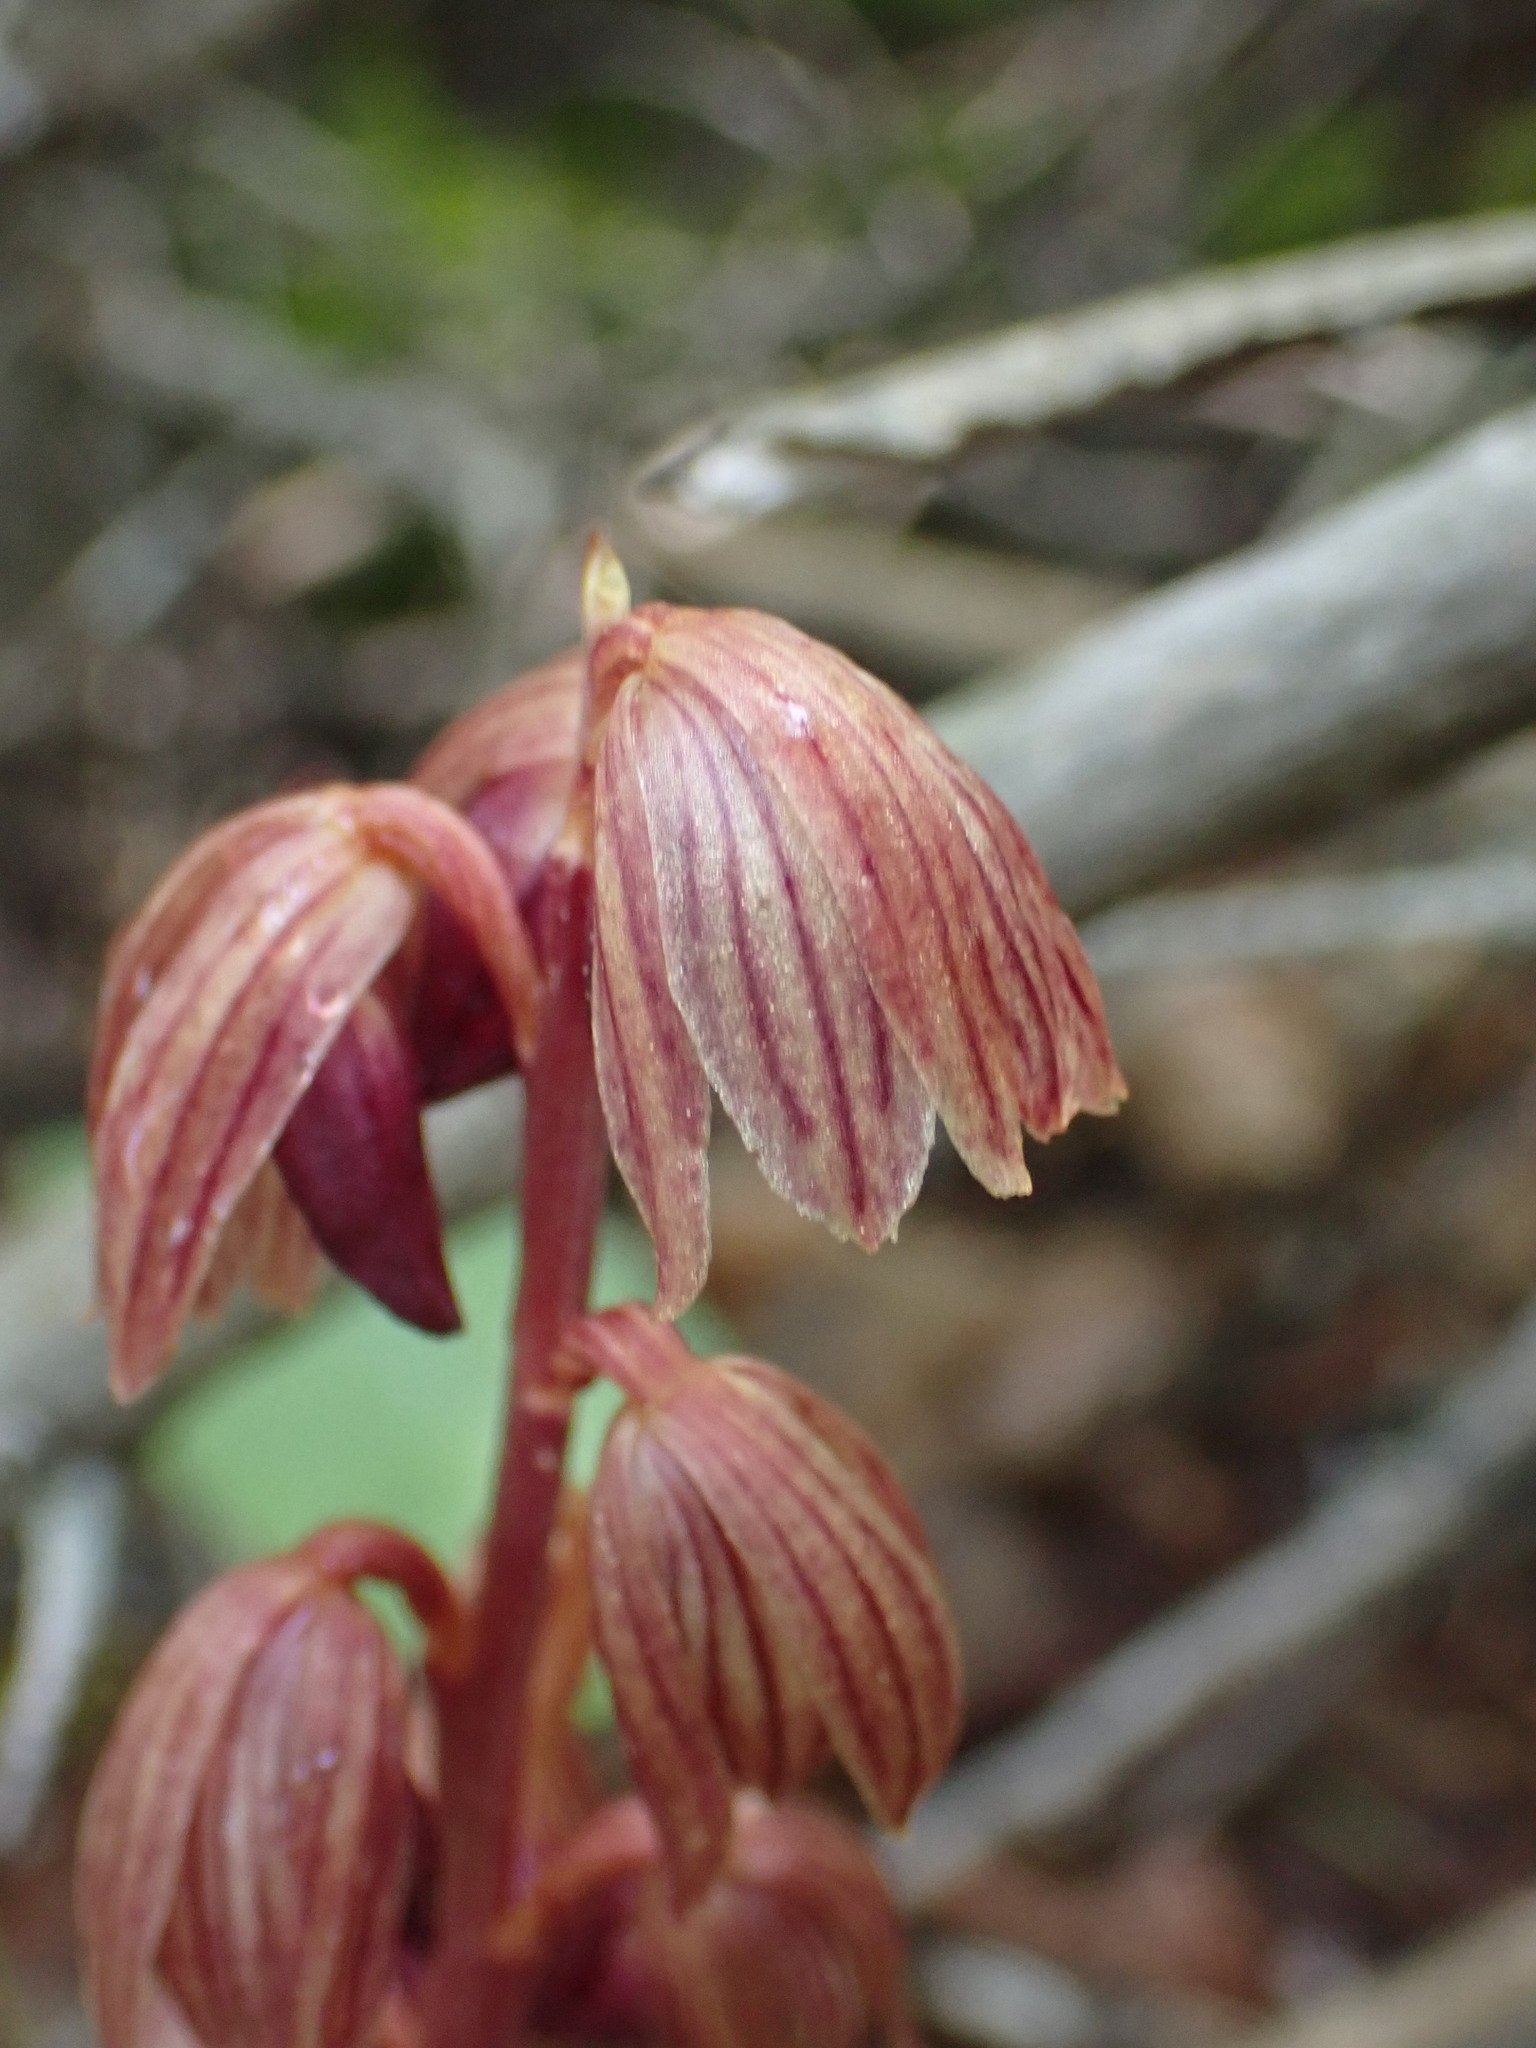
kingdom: Plantae
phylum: Tracheophyta
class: Liliopsida
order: Asparagales
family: Orchidaceae
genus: Corallorhiza
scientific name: Corallorhiza striata
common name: Hooded coralroot
